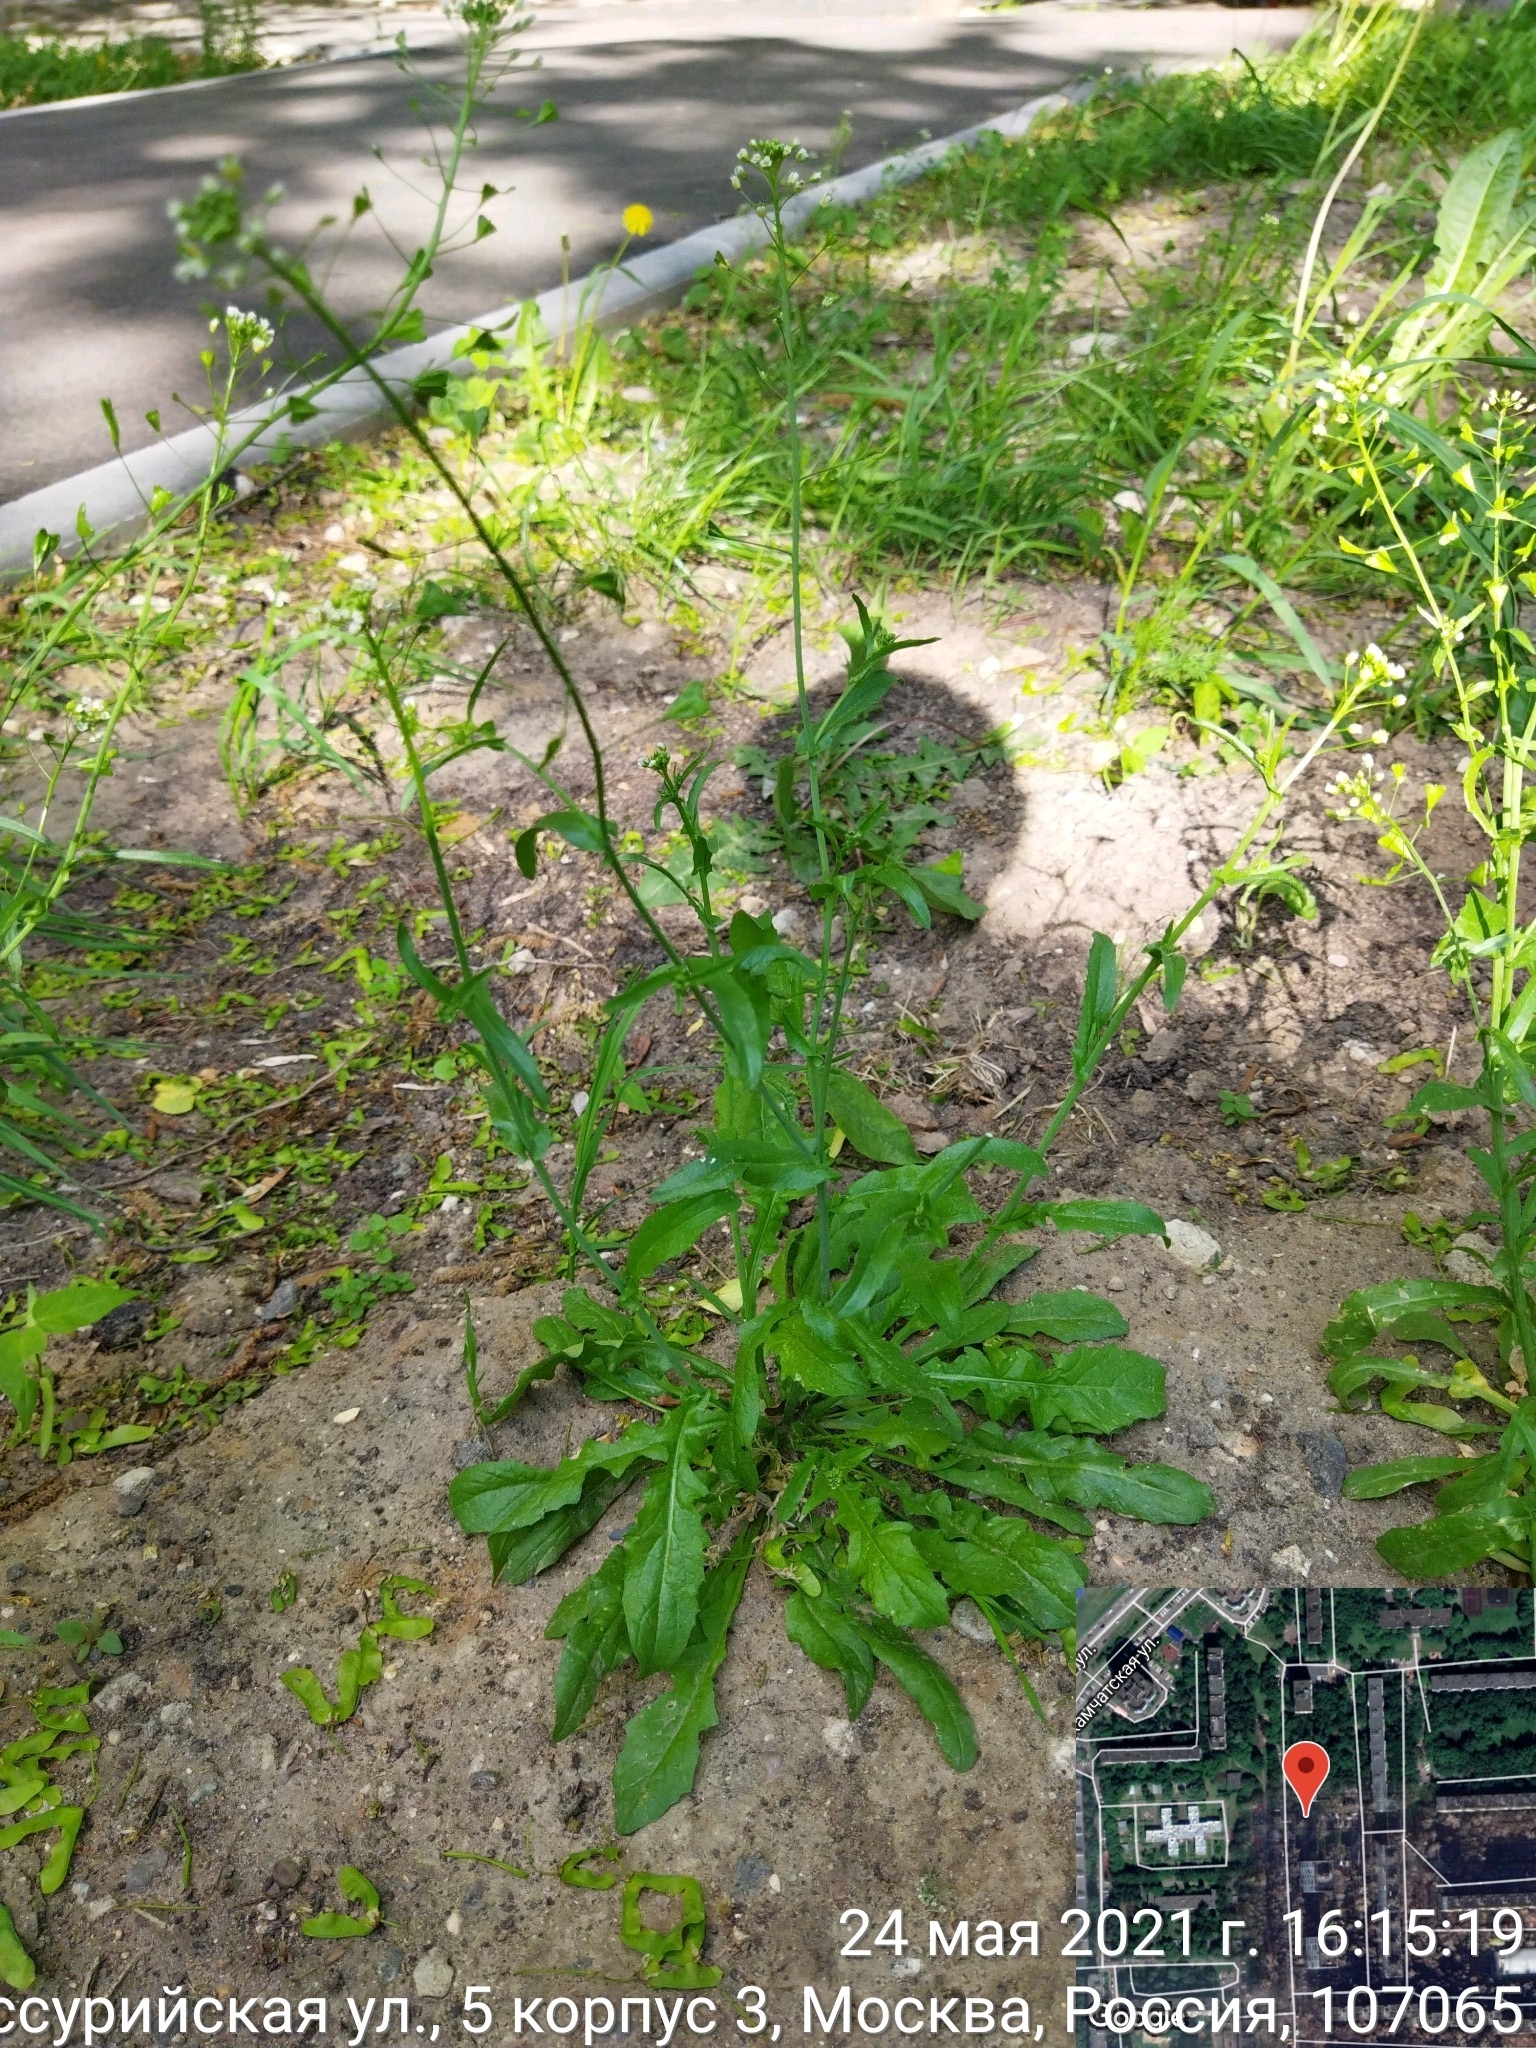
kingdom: Plantae
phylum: Tracheophyta
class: Magnoliopsida
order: Brassicales
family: Brassicaceae
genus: Capsella
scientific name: Capsella bursa-pastoris
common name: Shepherd's purse
